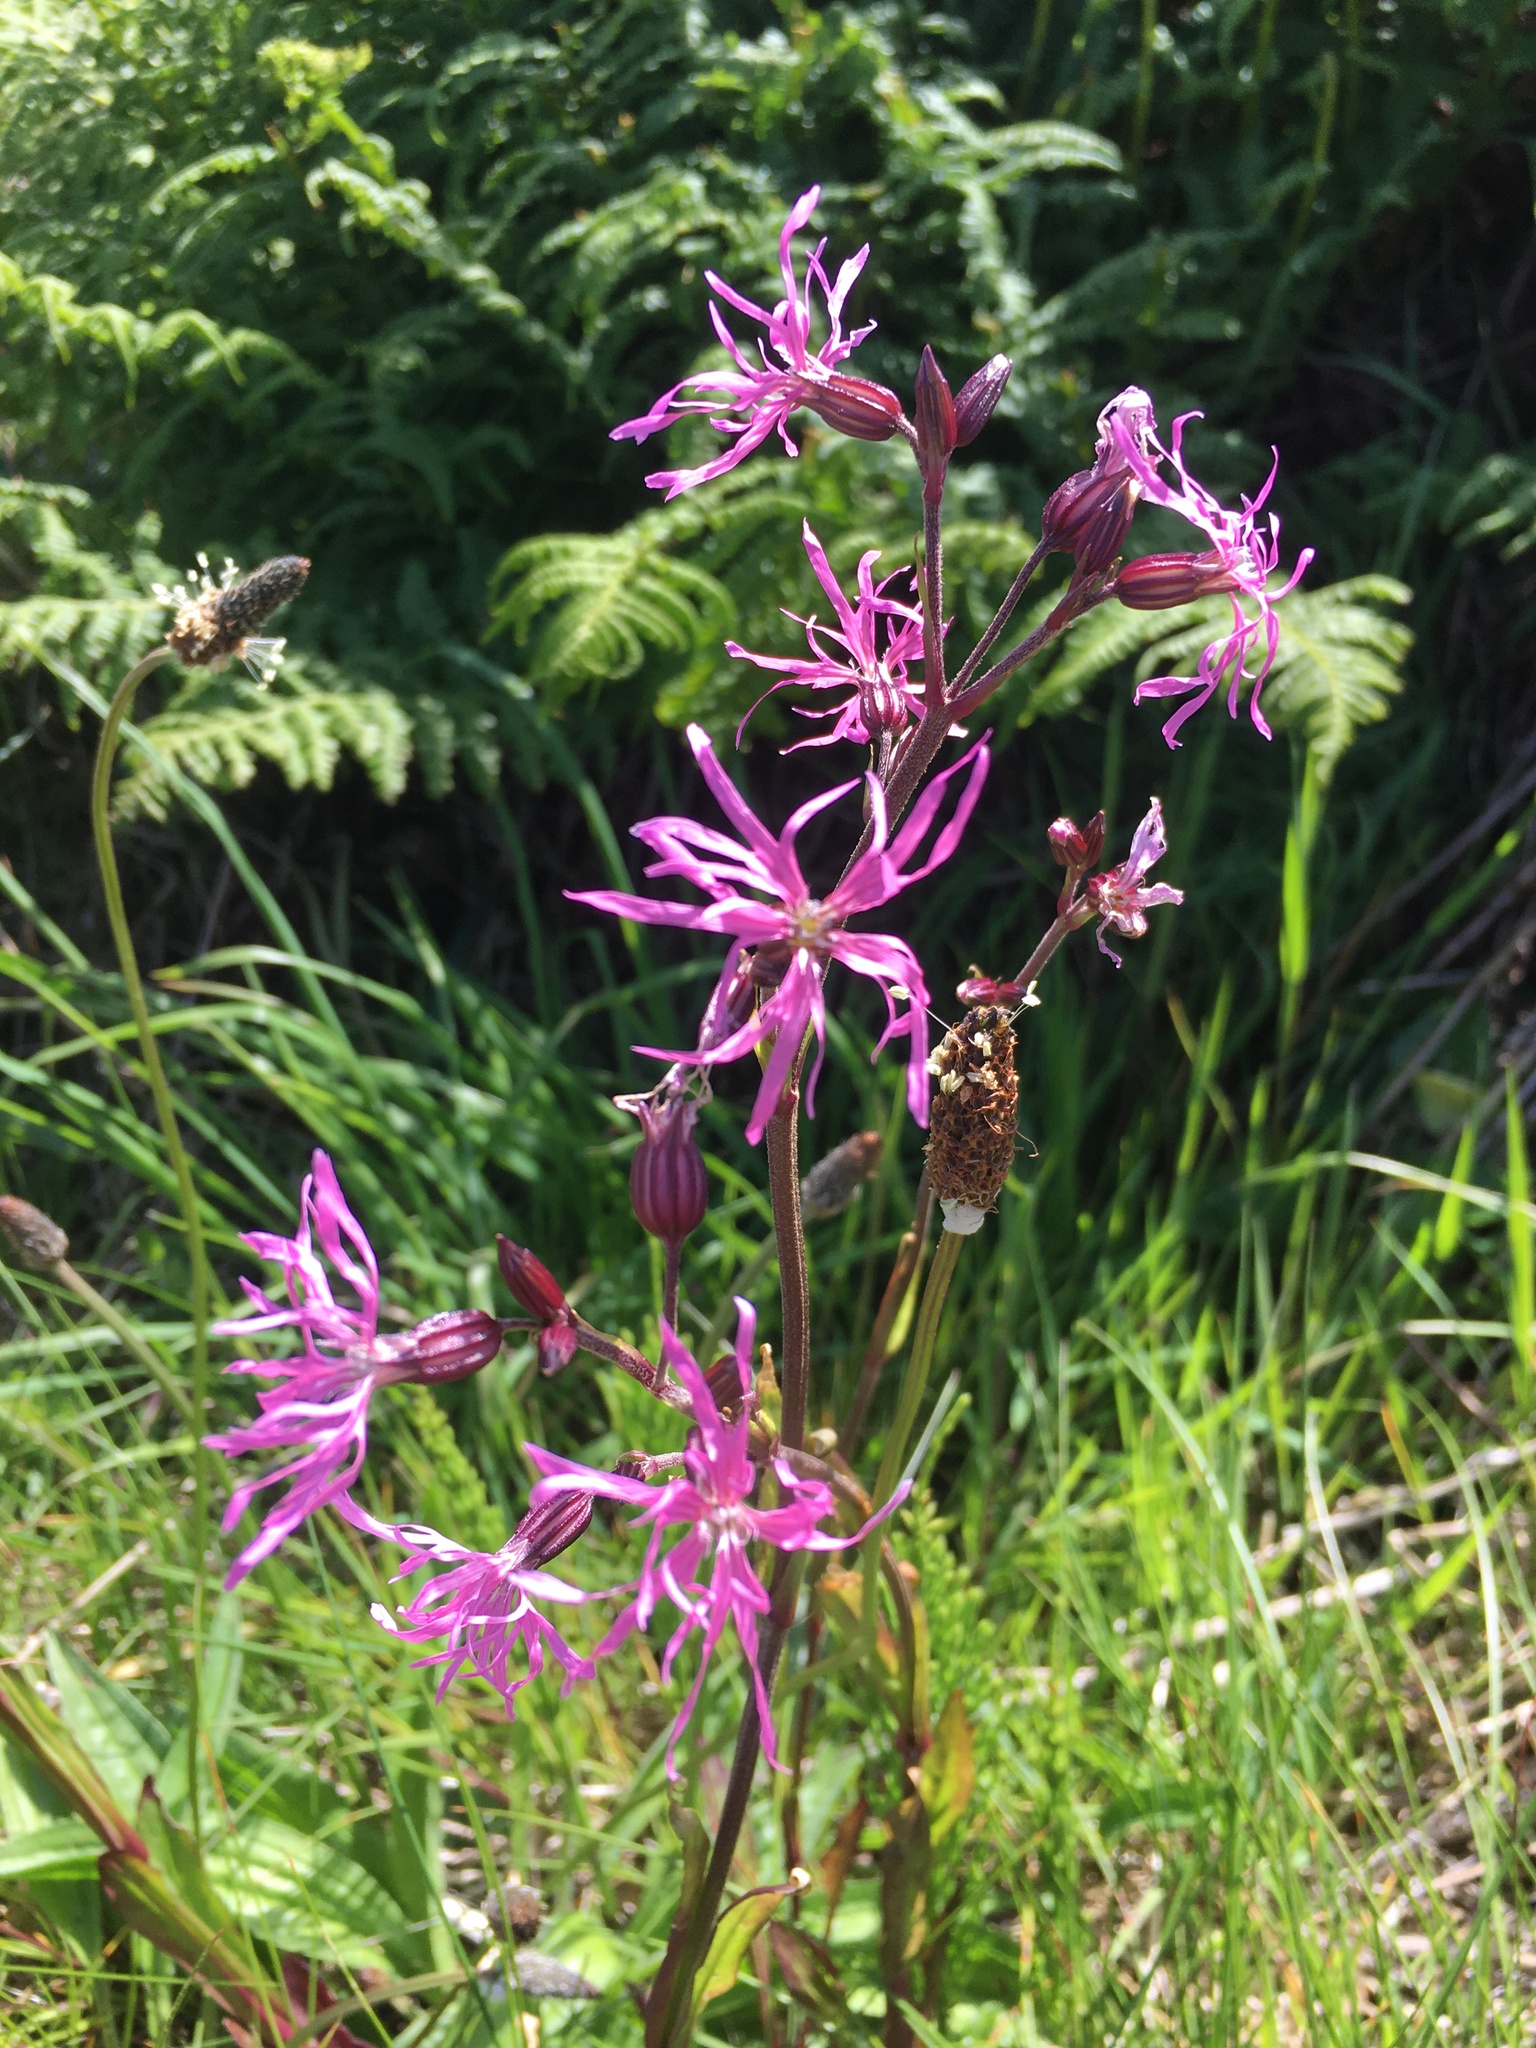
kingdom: Plantae
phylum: Tracheophyta
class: Magnoliopsida
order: Caryophyllales
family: Caryophyllaceae
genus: Silene
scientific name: Silene flos-cuculi
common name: Ragged-robin
